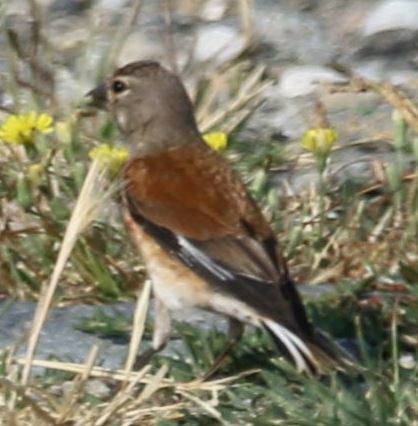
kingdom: Animalia
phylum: Chordata
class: Aves
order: Passeriformes
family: Fringillidae
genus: Linaria
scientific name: Linaria cannabina
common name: Common linnet
